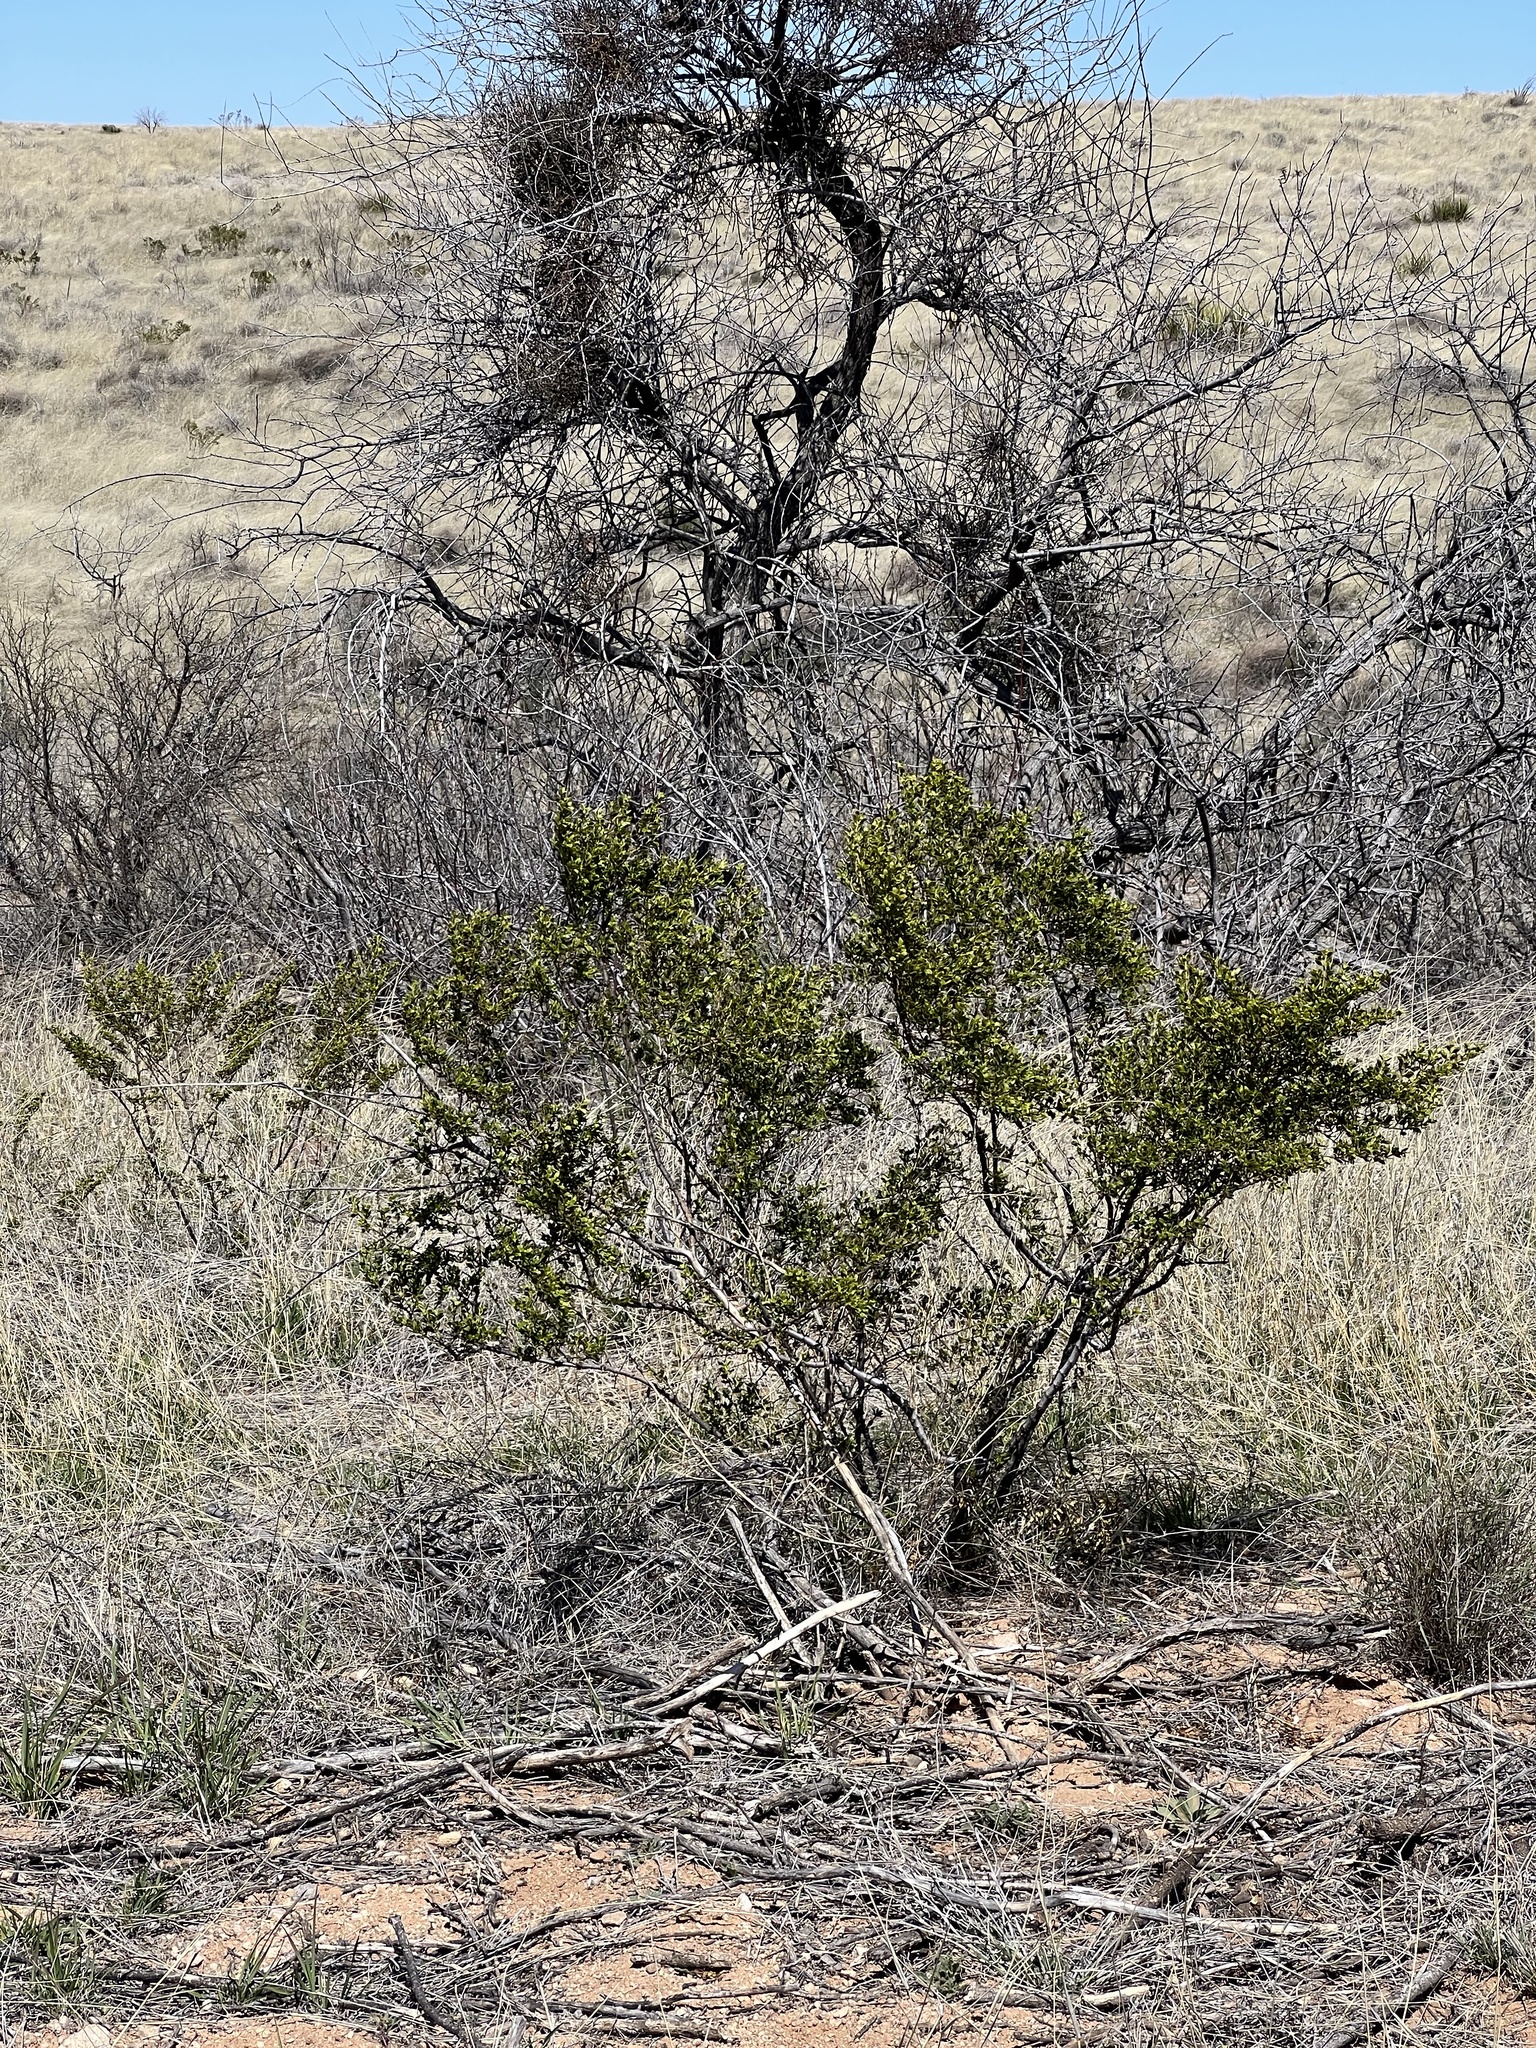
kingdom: Plantae
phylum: Tracheophyta
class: Magnoliopsida
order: Zygophyllales
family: Zygophyllaceae
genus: Larrea
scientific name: Larrea tridentata
